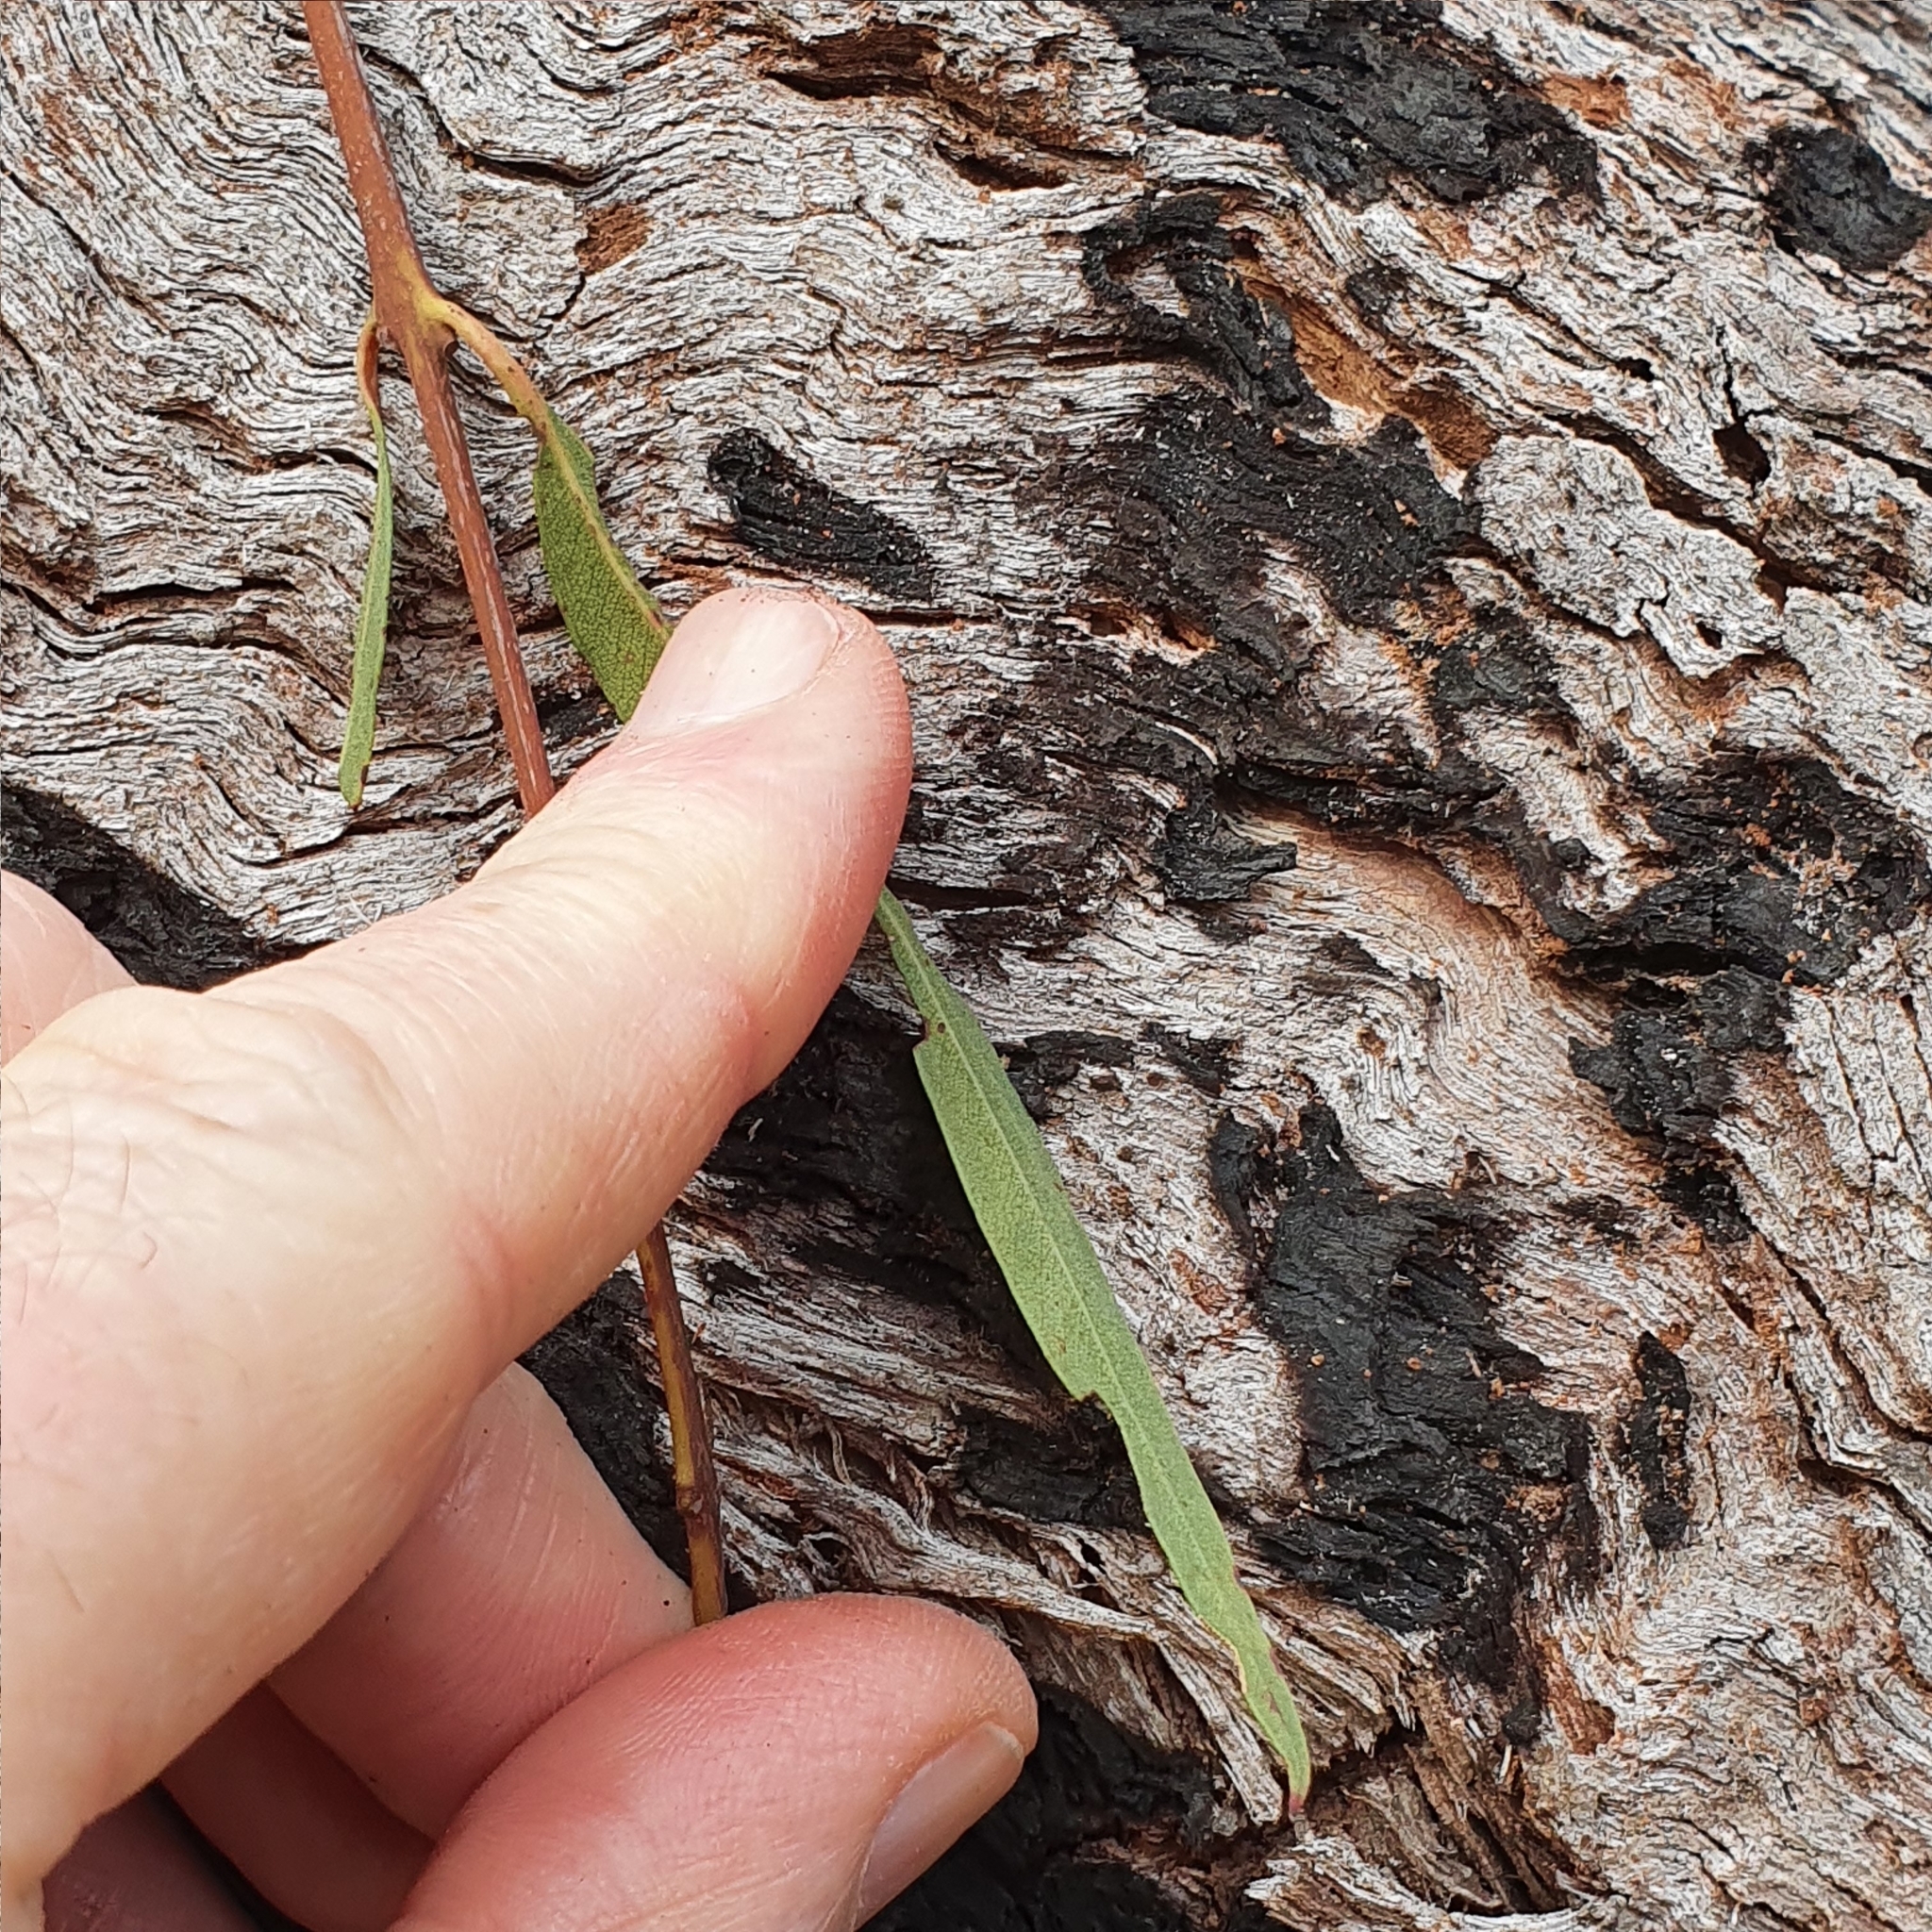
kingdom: Plantae
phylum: Tracheophyta
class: Magnoliopsida
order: Myrtales
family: Myrtaceae
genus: Angophora
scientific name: Angophora bakeri
